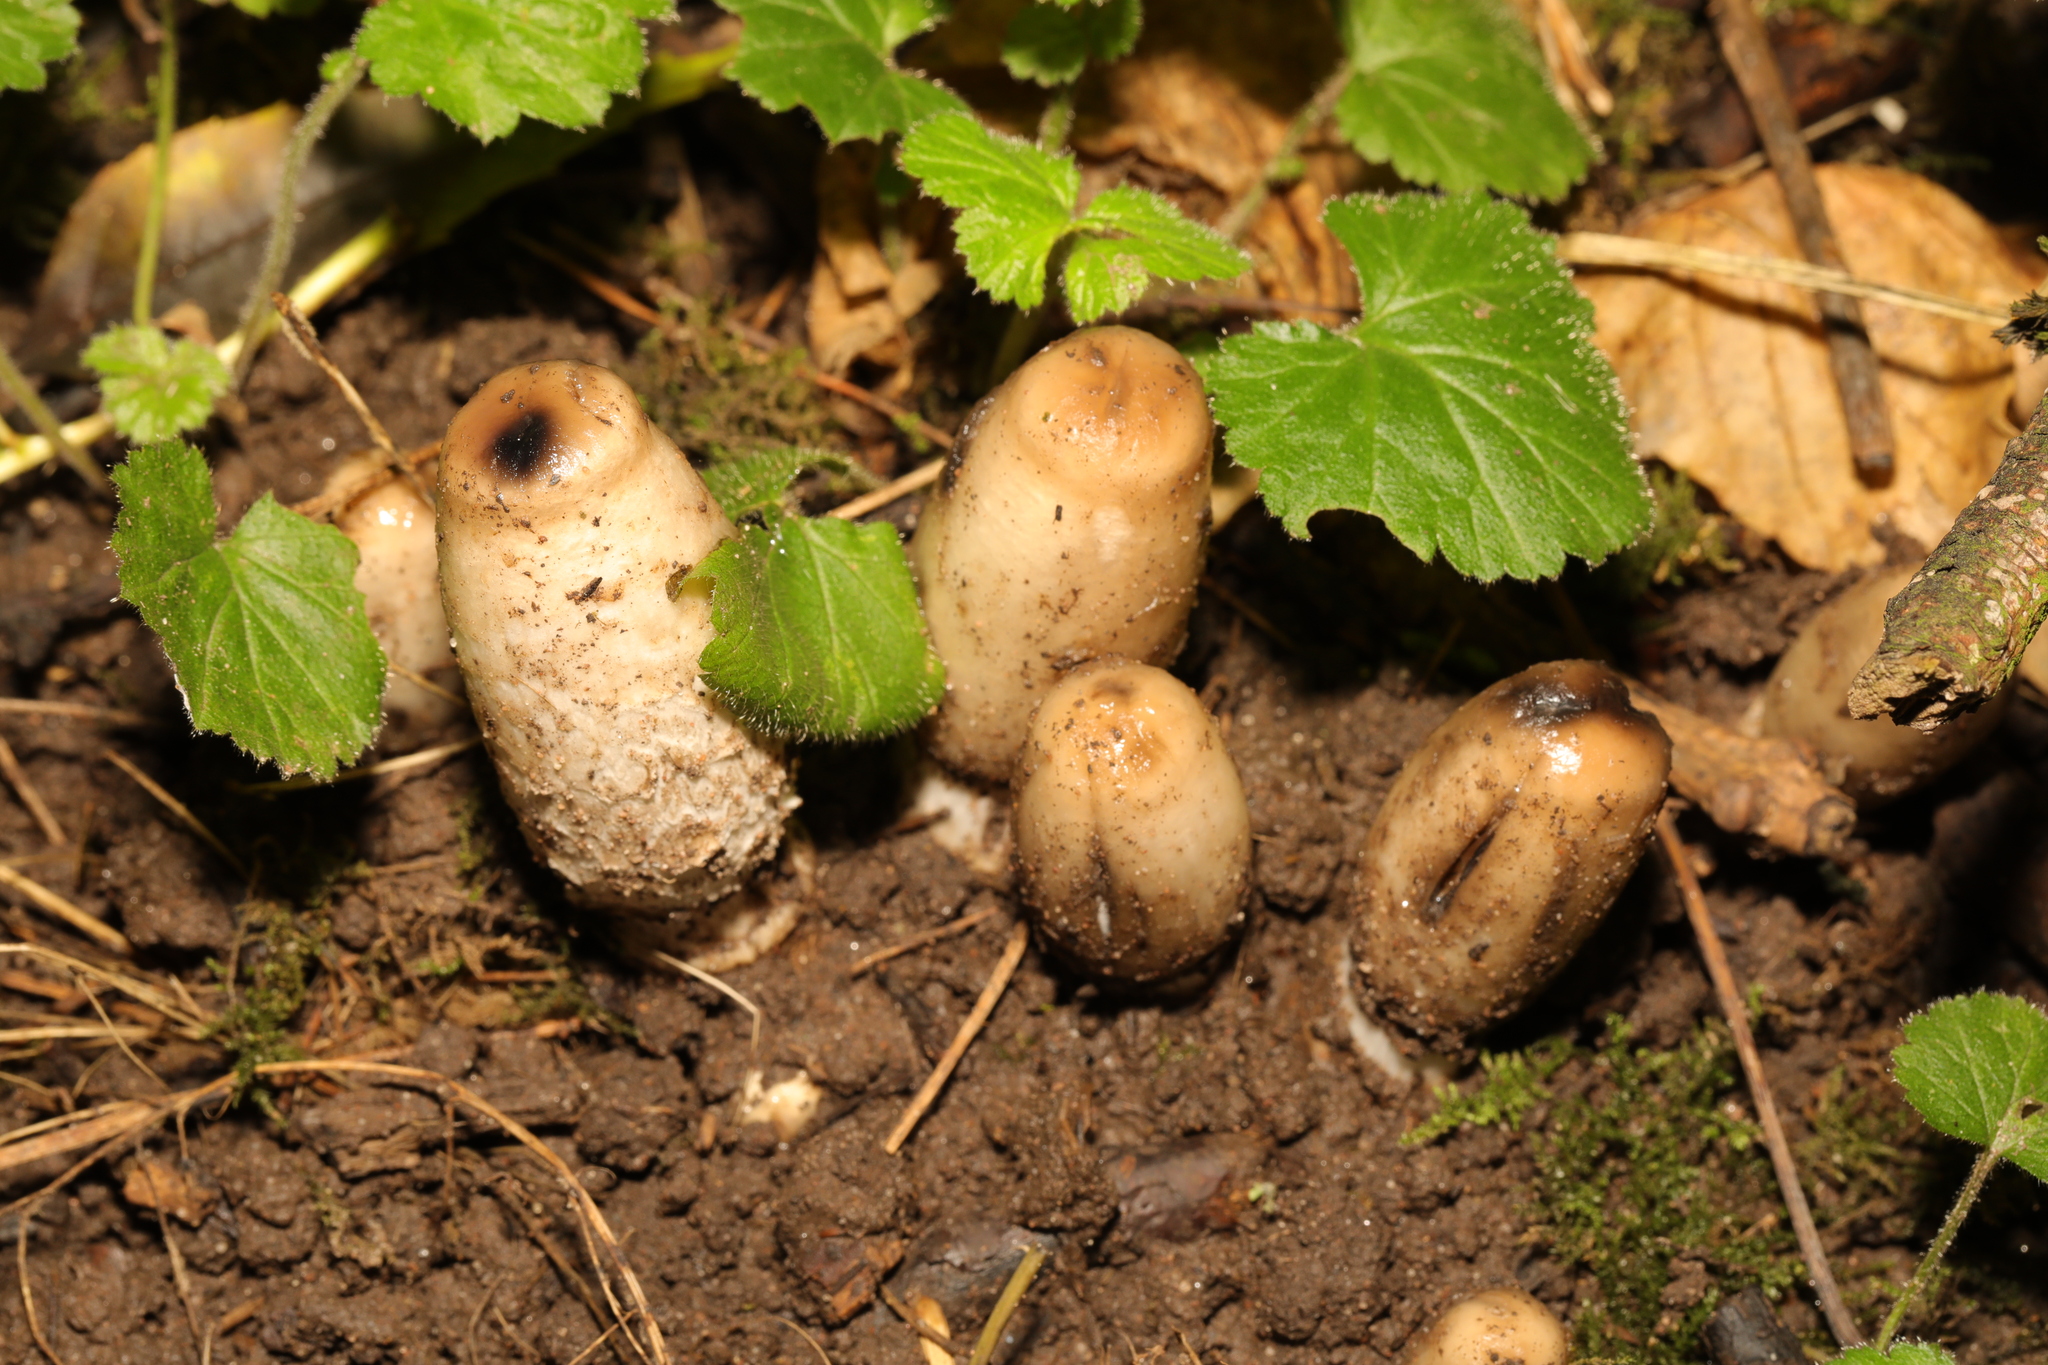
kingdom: Fungi
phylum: Basidiomycota
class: Agaricomycetes
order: Agaricales
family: Agaricaceae
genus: Coprinus
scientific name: Coprinus comatus
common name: Lawyer's wig
